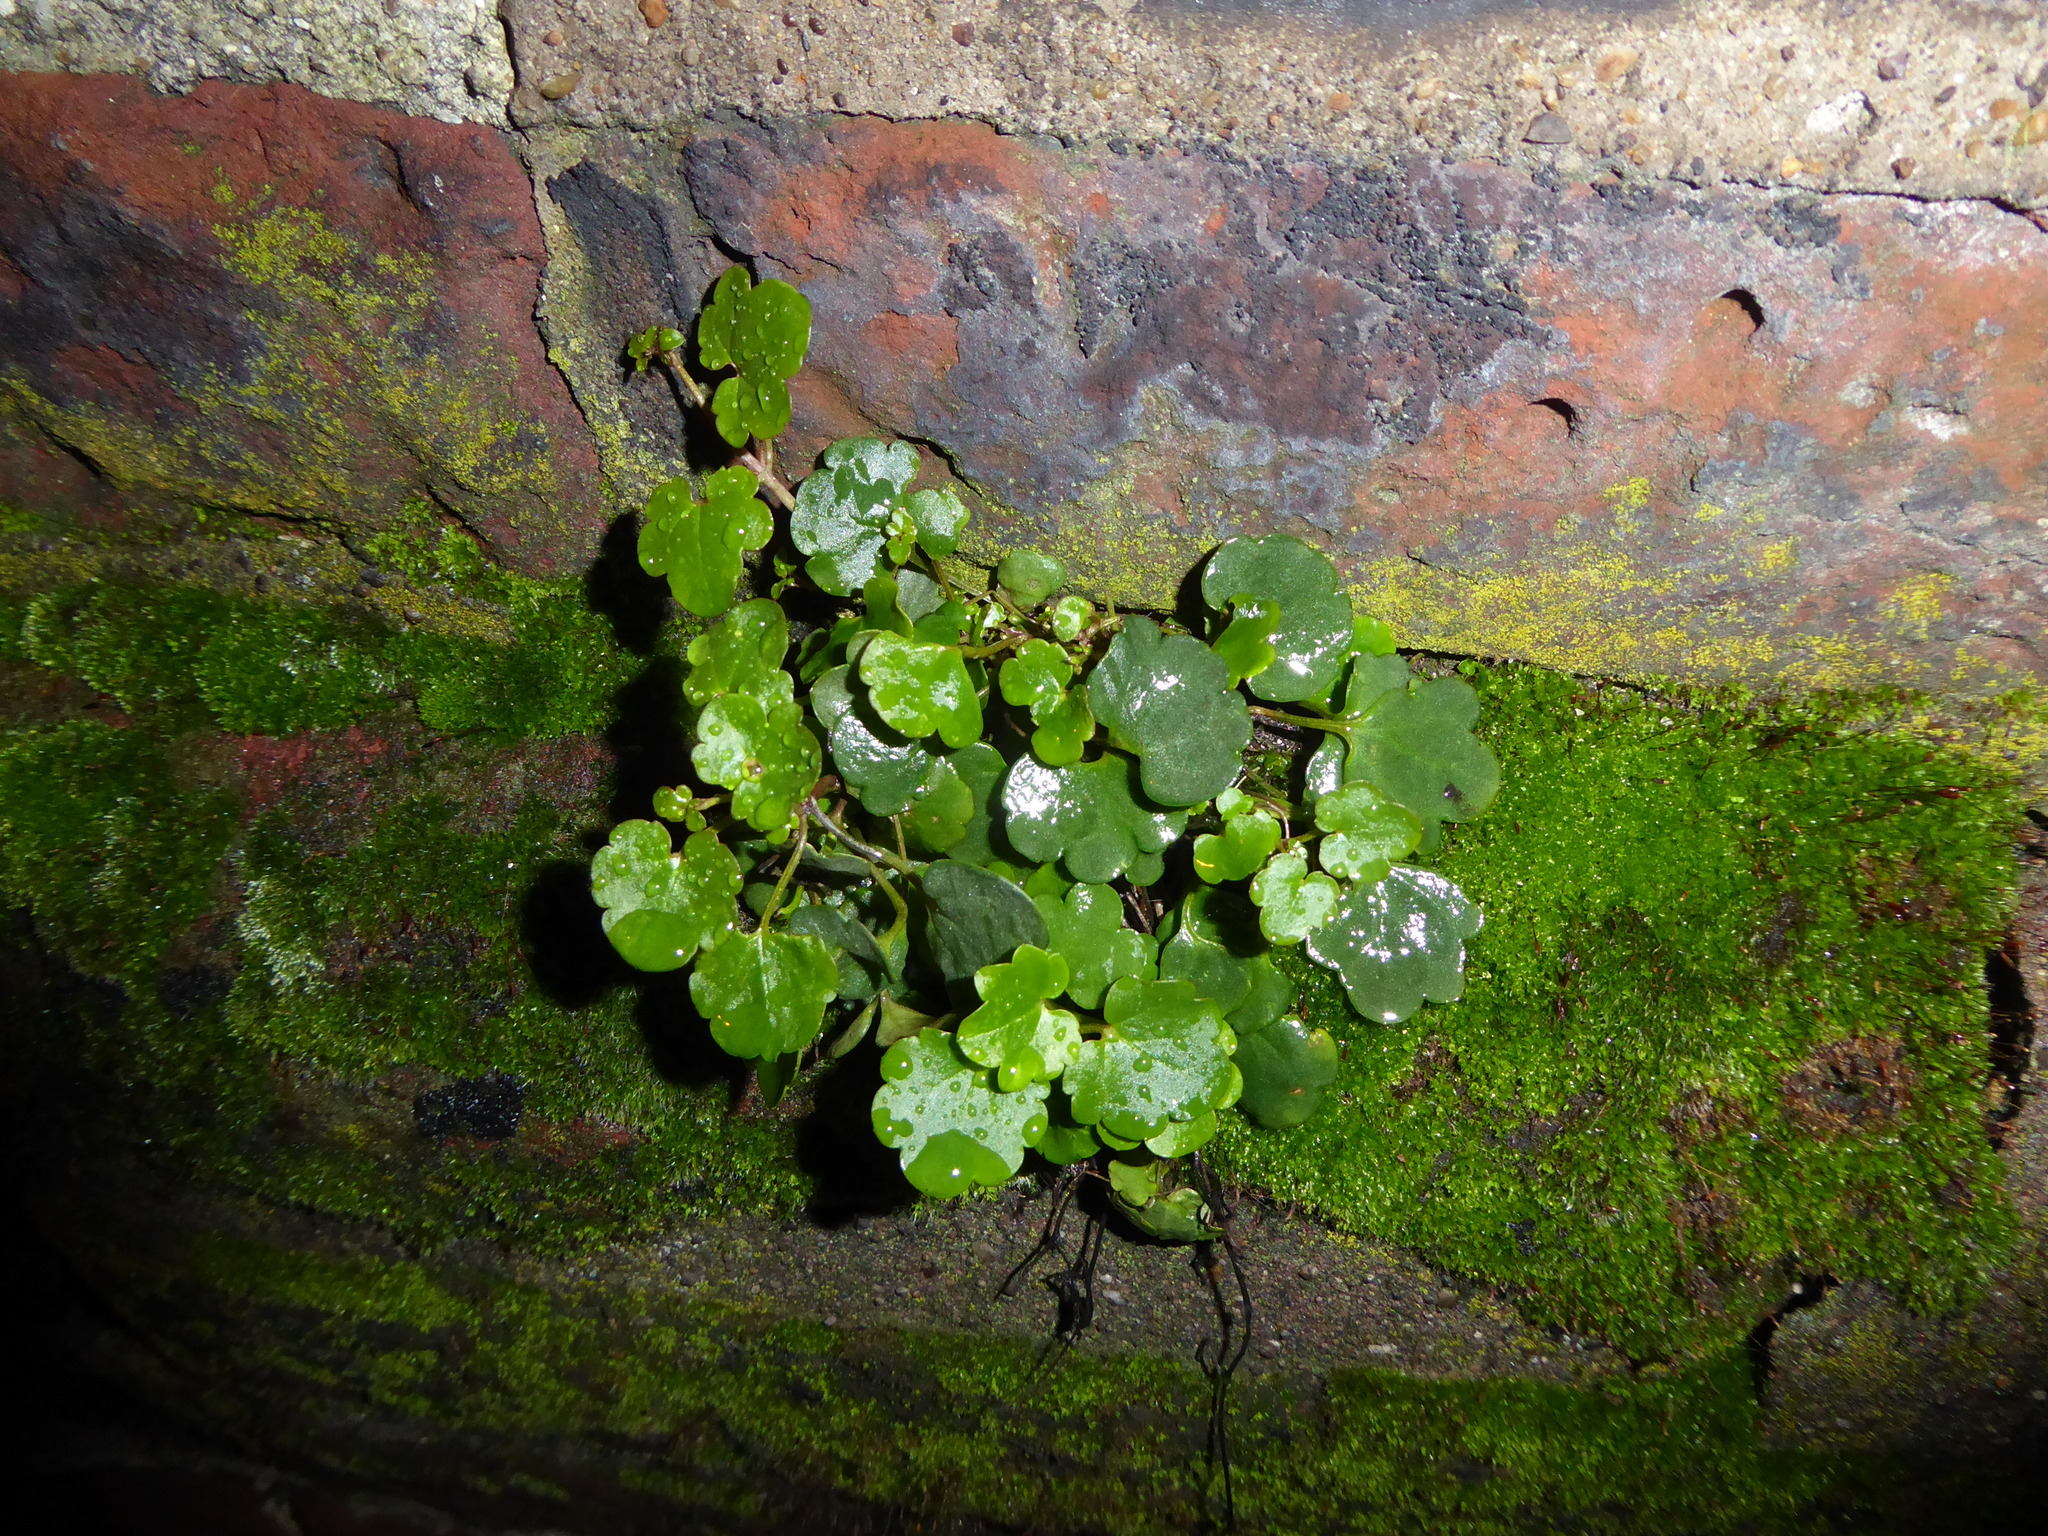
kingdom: Plantae
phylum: Tracheophyta
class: Magnoliopsida
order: Lamiales
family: Plantaginaceae
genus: Cymbalaria
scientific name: Cymbalaria muralis
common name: Ivy-leaved toadflax
